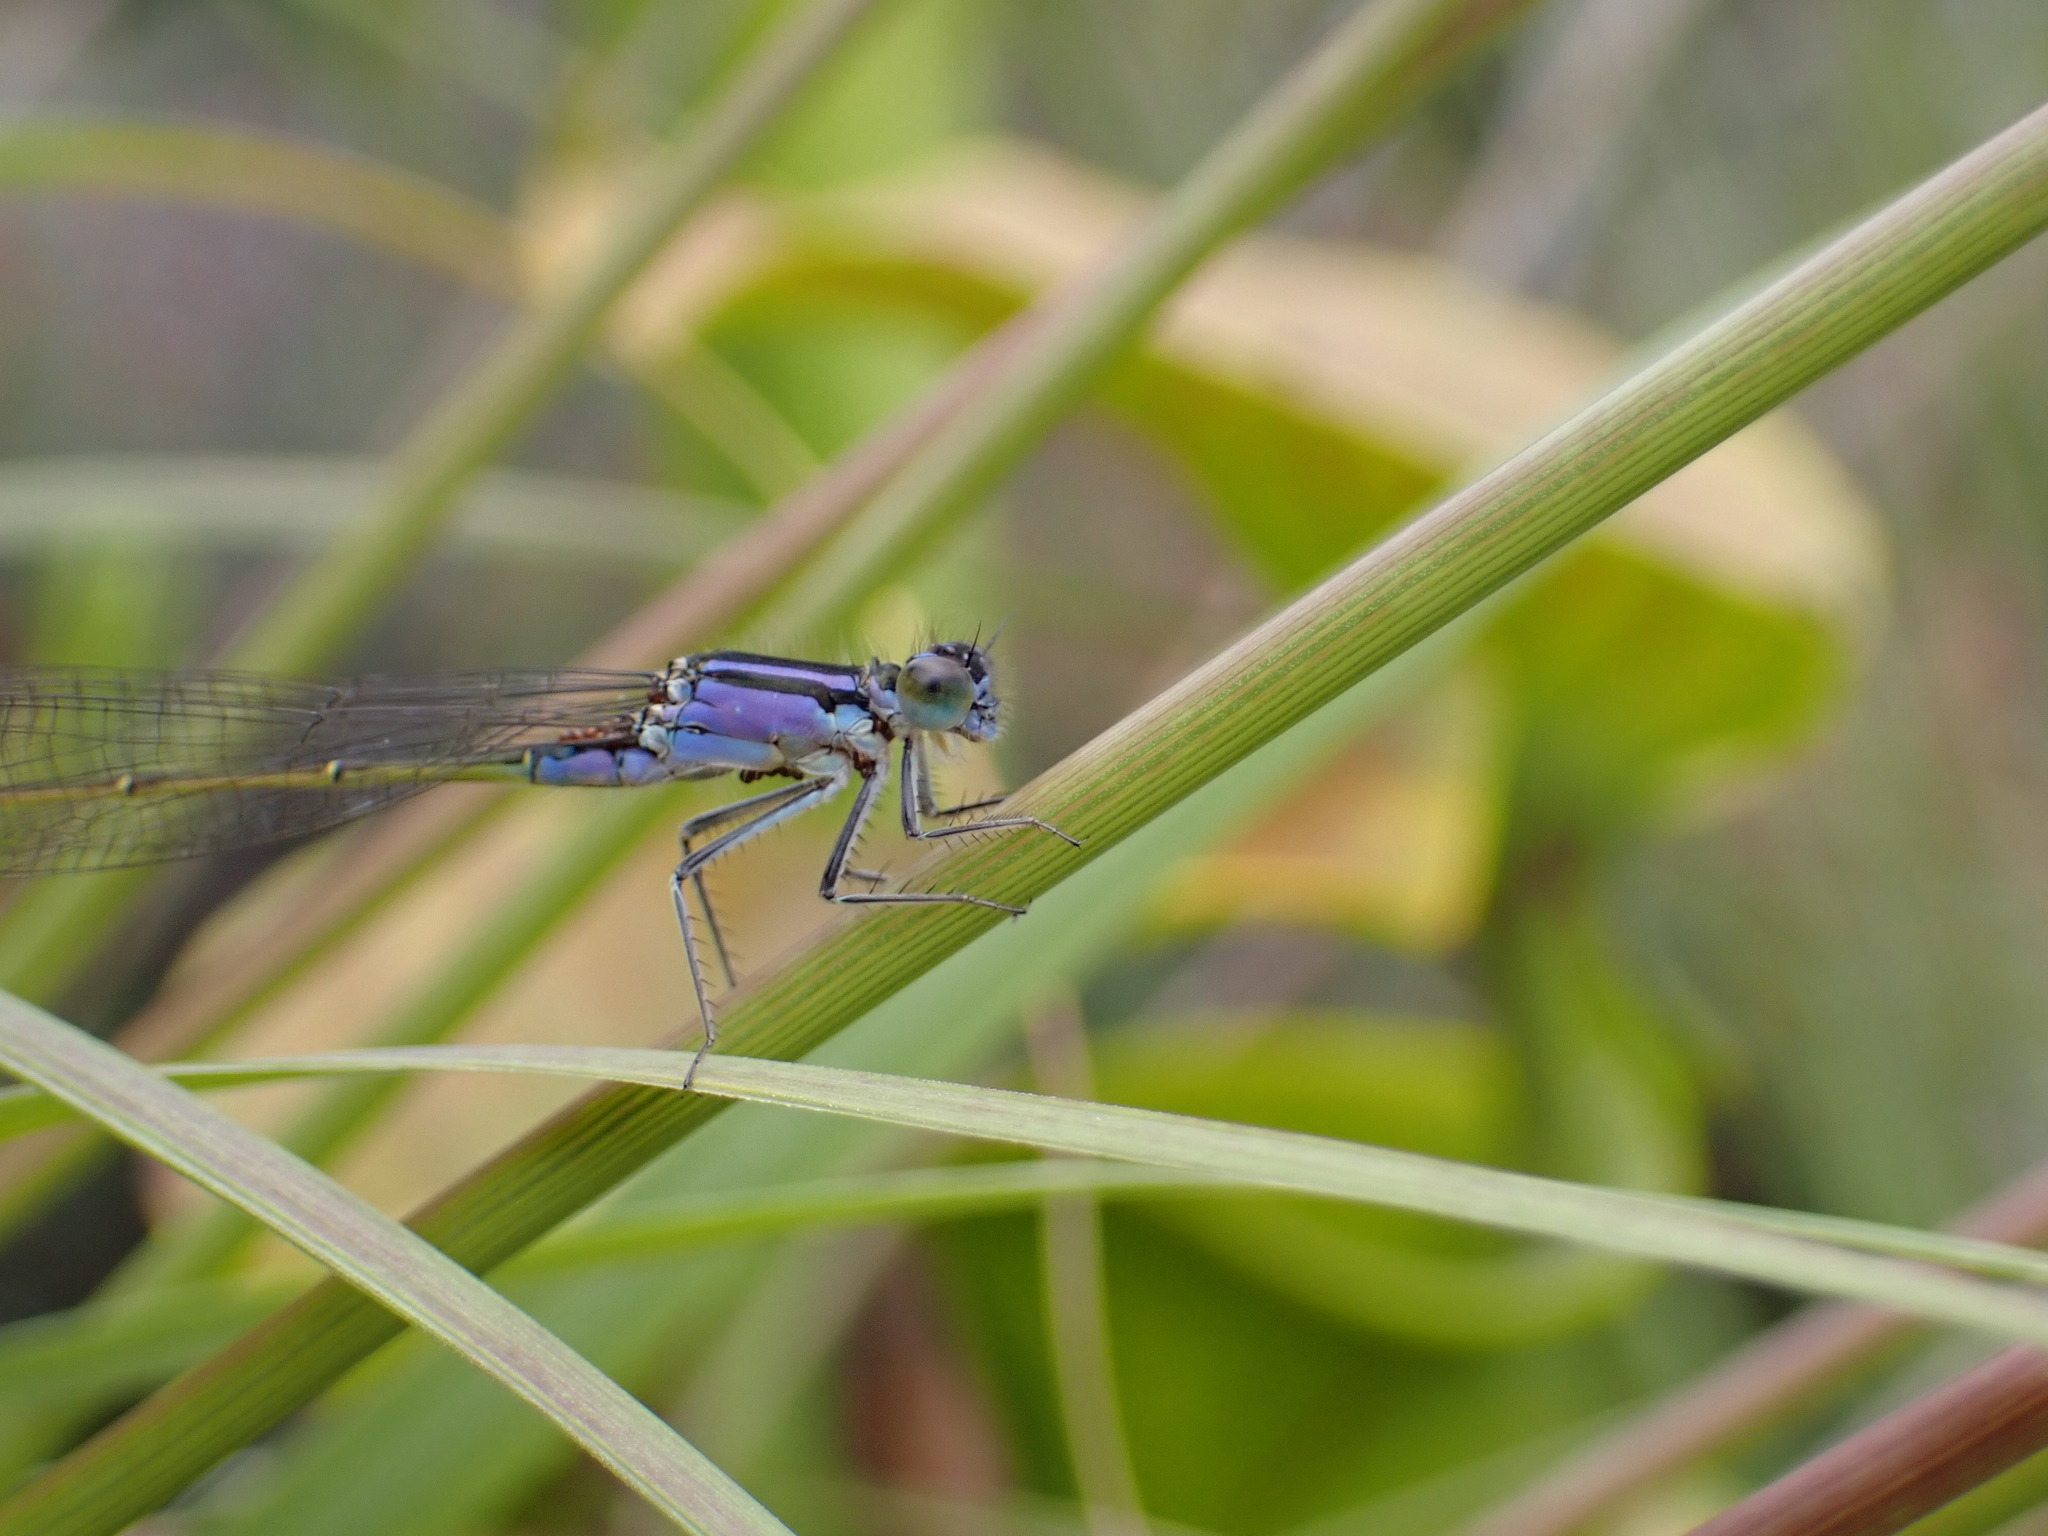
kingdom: Animalia
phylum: Arthropoda
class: Insecta
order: Odonata
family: Coenagrionidae
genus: Ischnura
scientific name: Ischnura elegans
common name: Blue-tailed damselfly
